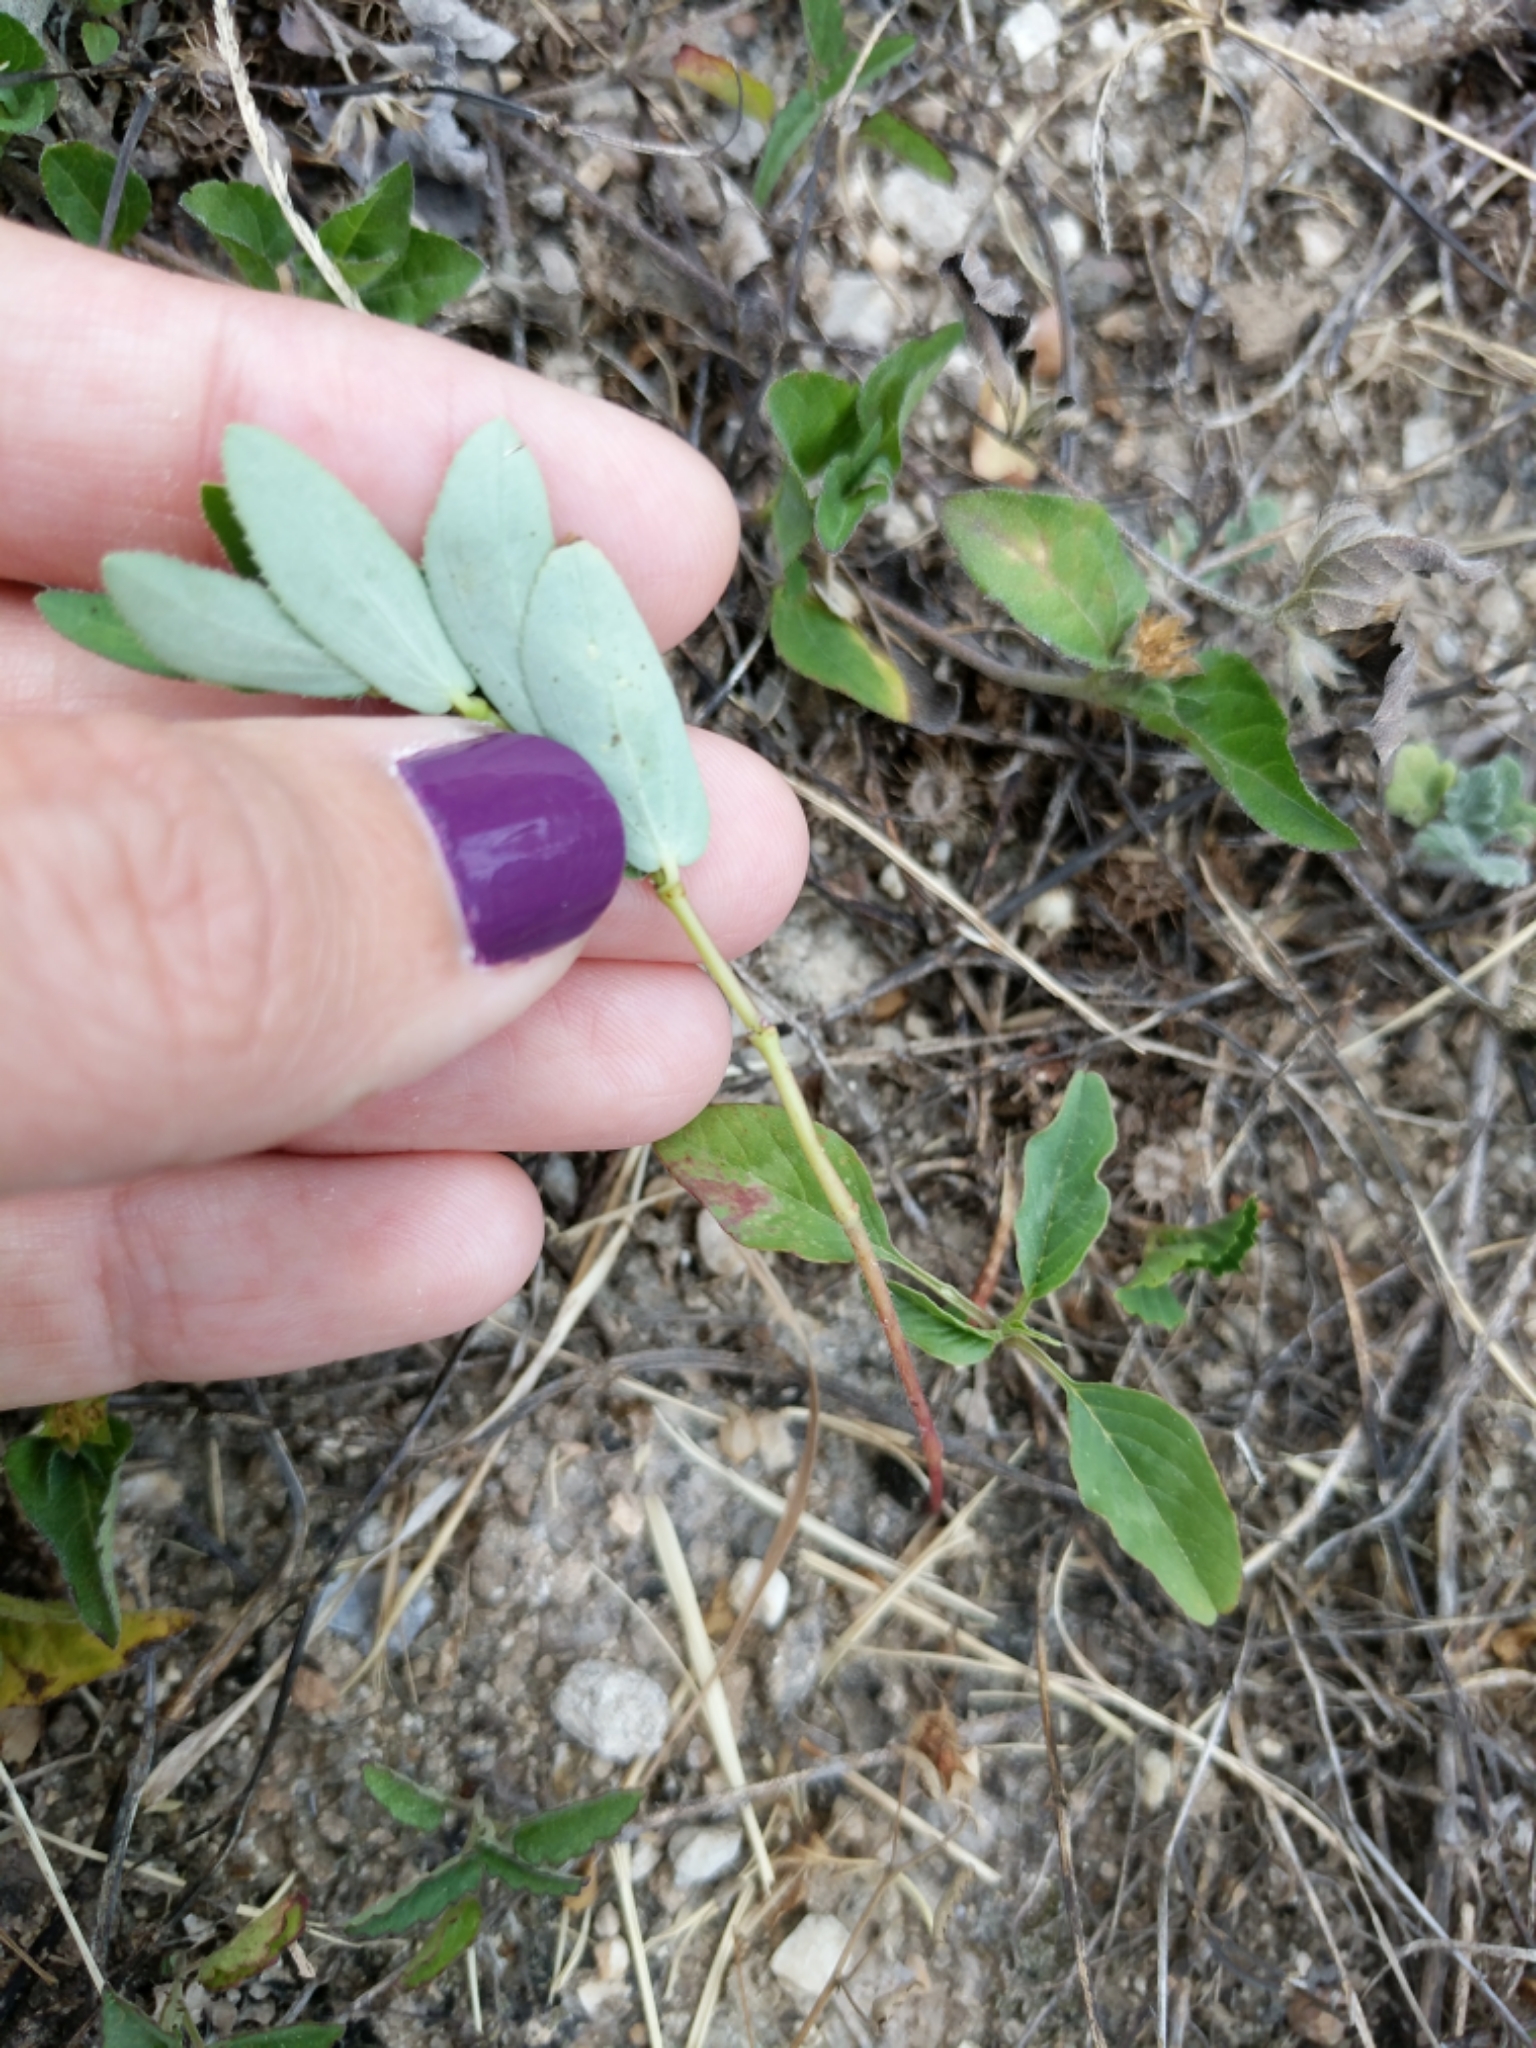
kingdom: Plantae
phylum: Tracheophyta
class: Magnoliopsida
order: Malpighiales
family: Euphorbiaceae
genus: Euphorbia
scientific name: Euphorbia hyssopifolia
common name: Hyssopleaf sandmat
